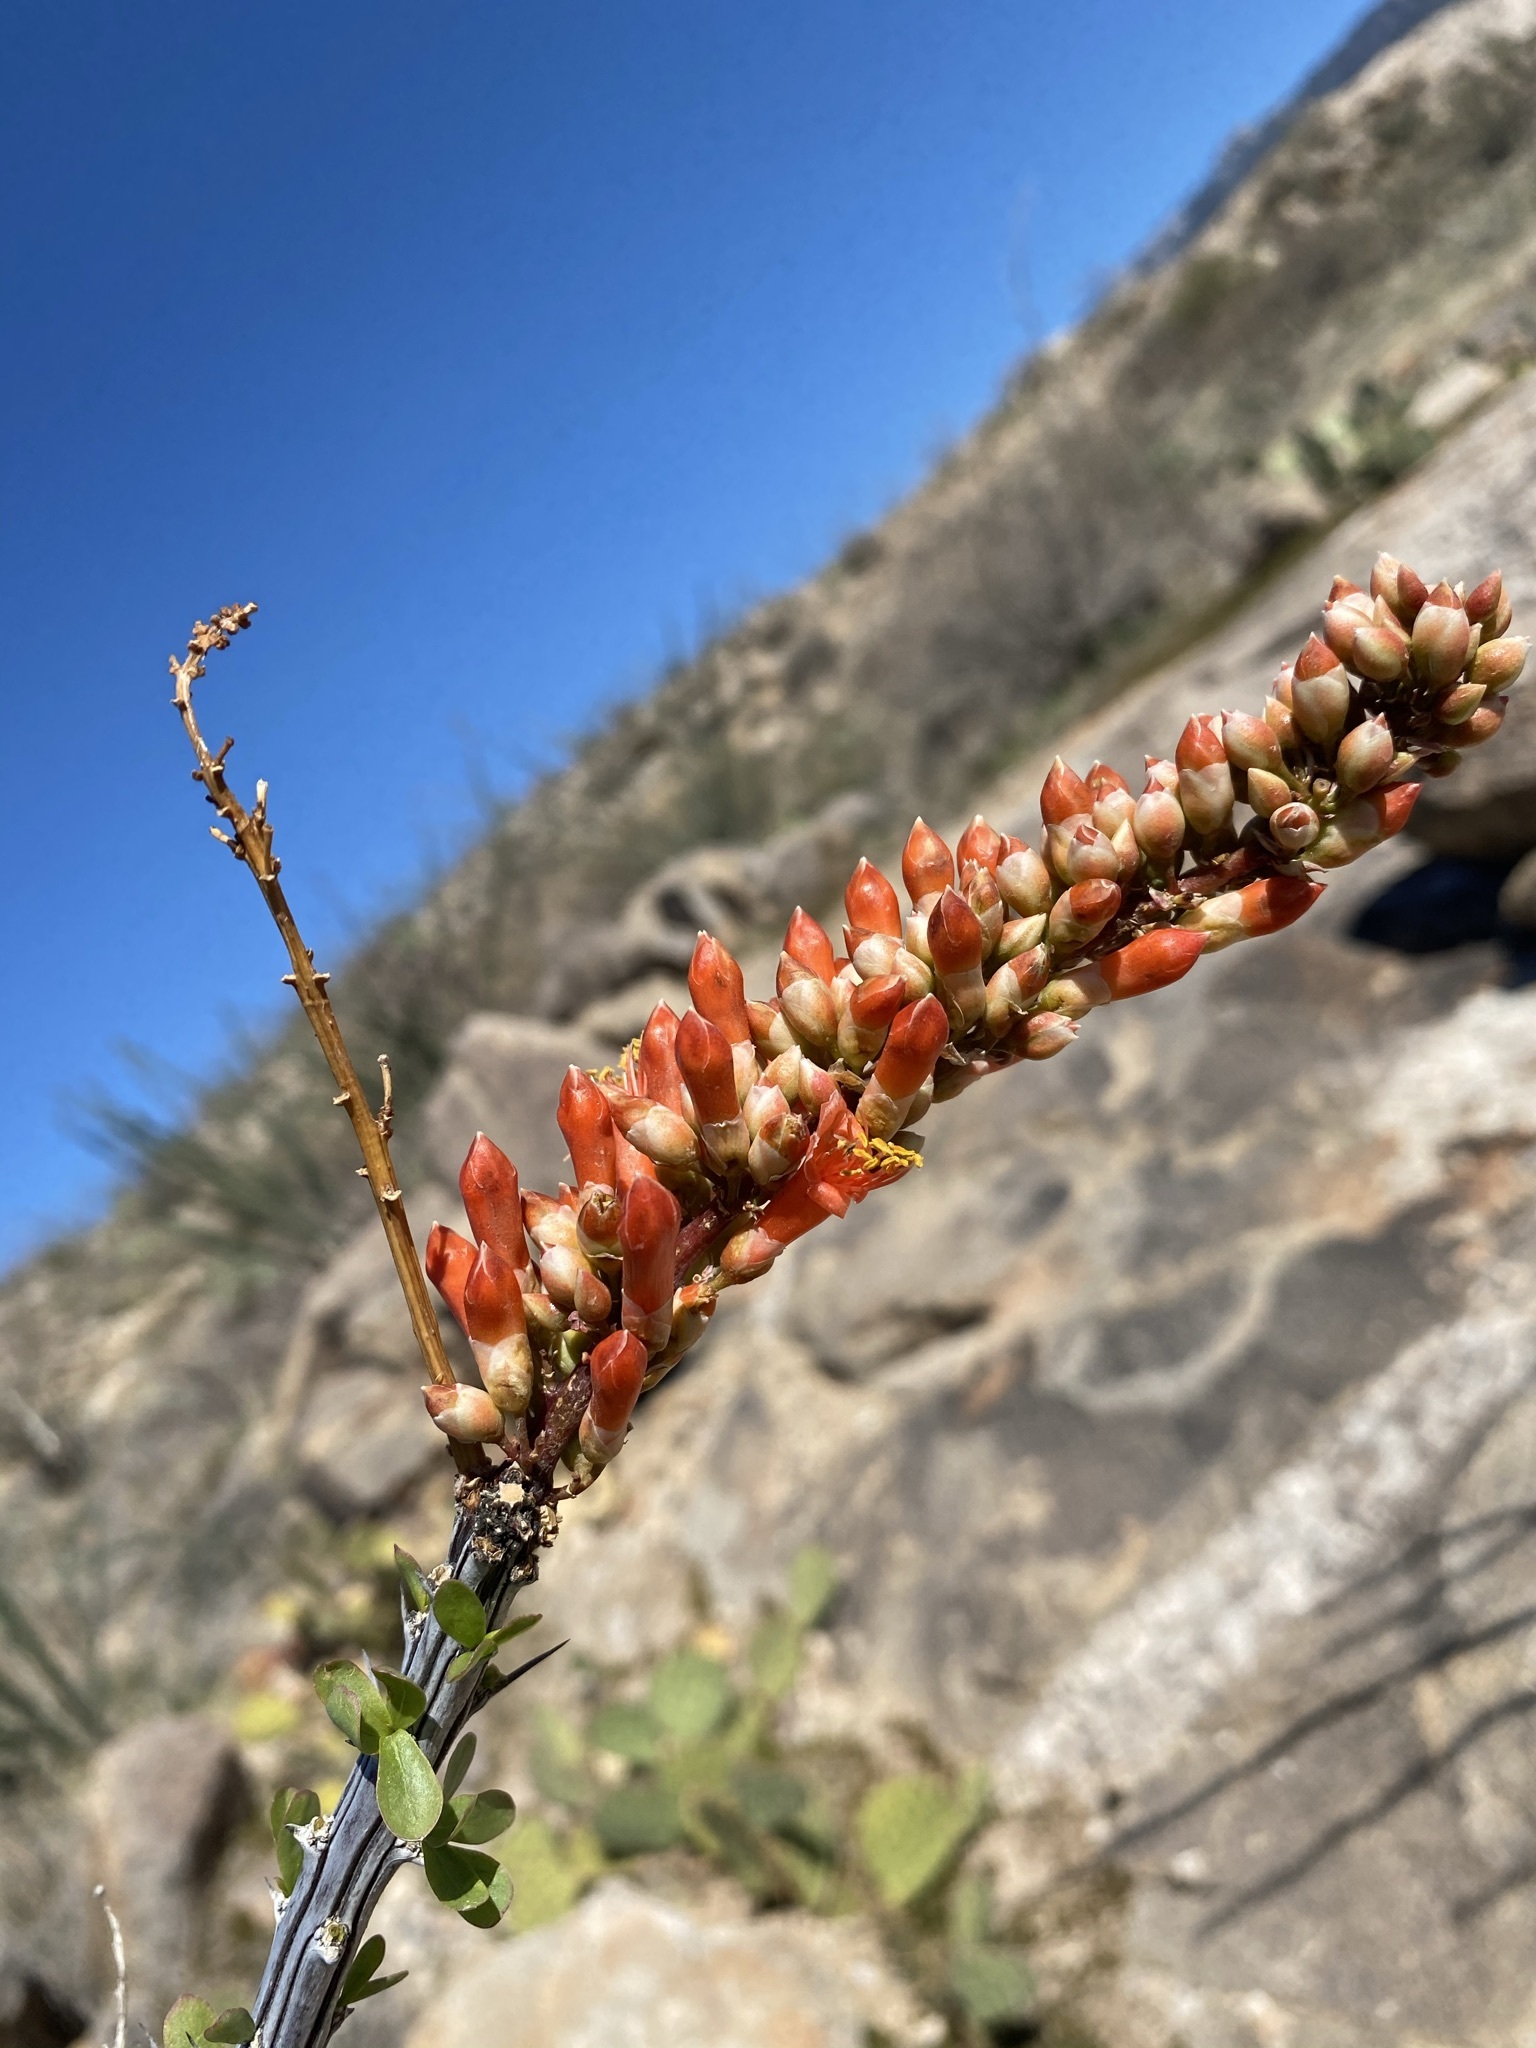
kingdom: Plantae
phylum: Tracheophyta
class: Magnoliopsida
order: Ericales
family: Fouquieriaceae
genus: Fouquieria
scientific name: Fouquieria splendens
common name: Vine-cactus
